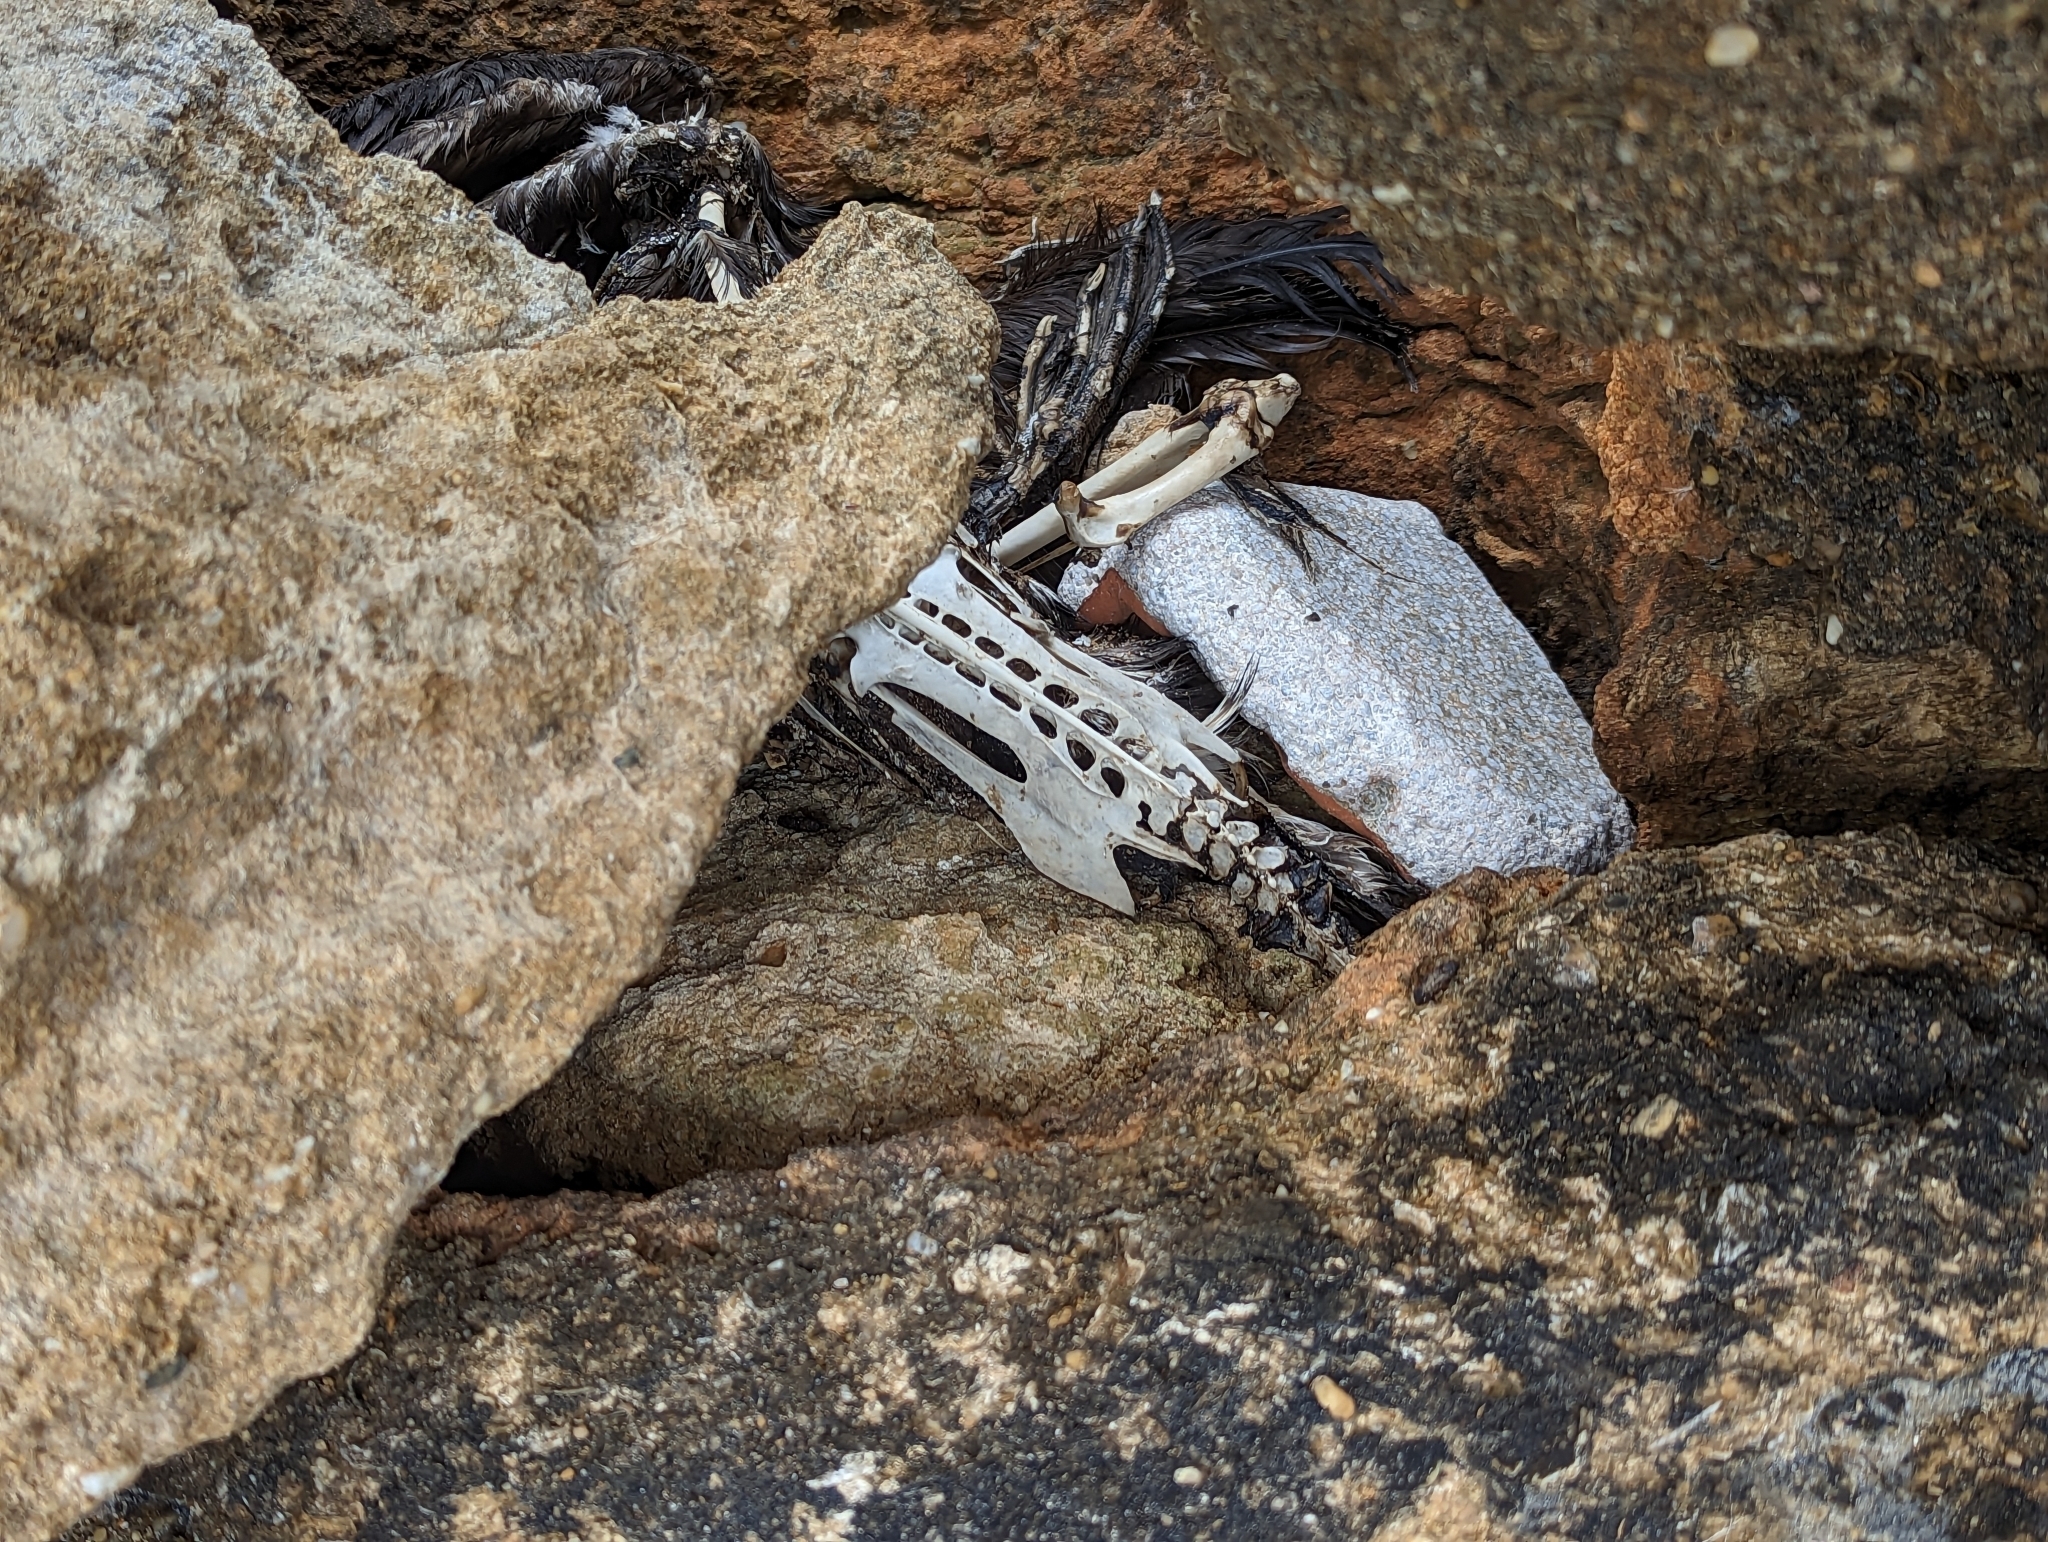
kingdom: Animalia
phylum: Chordata
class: Aves
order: Suliformes
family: Phalacrocoracidae
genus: Phalacrocorax
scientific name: Phalacrocorax carbo
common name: Great cormorant
